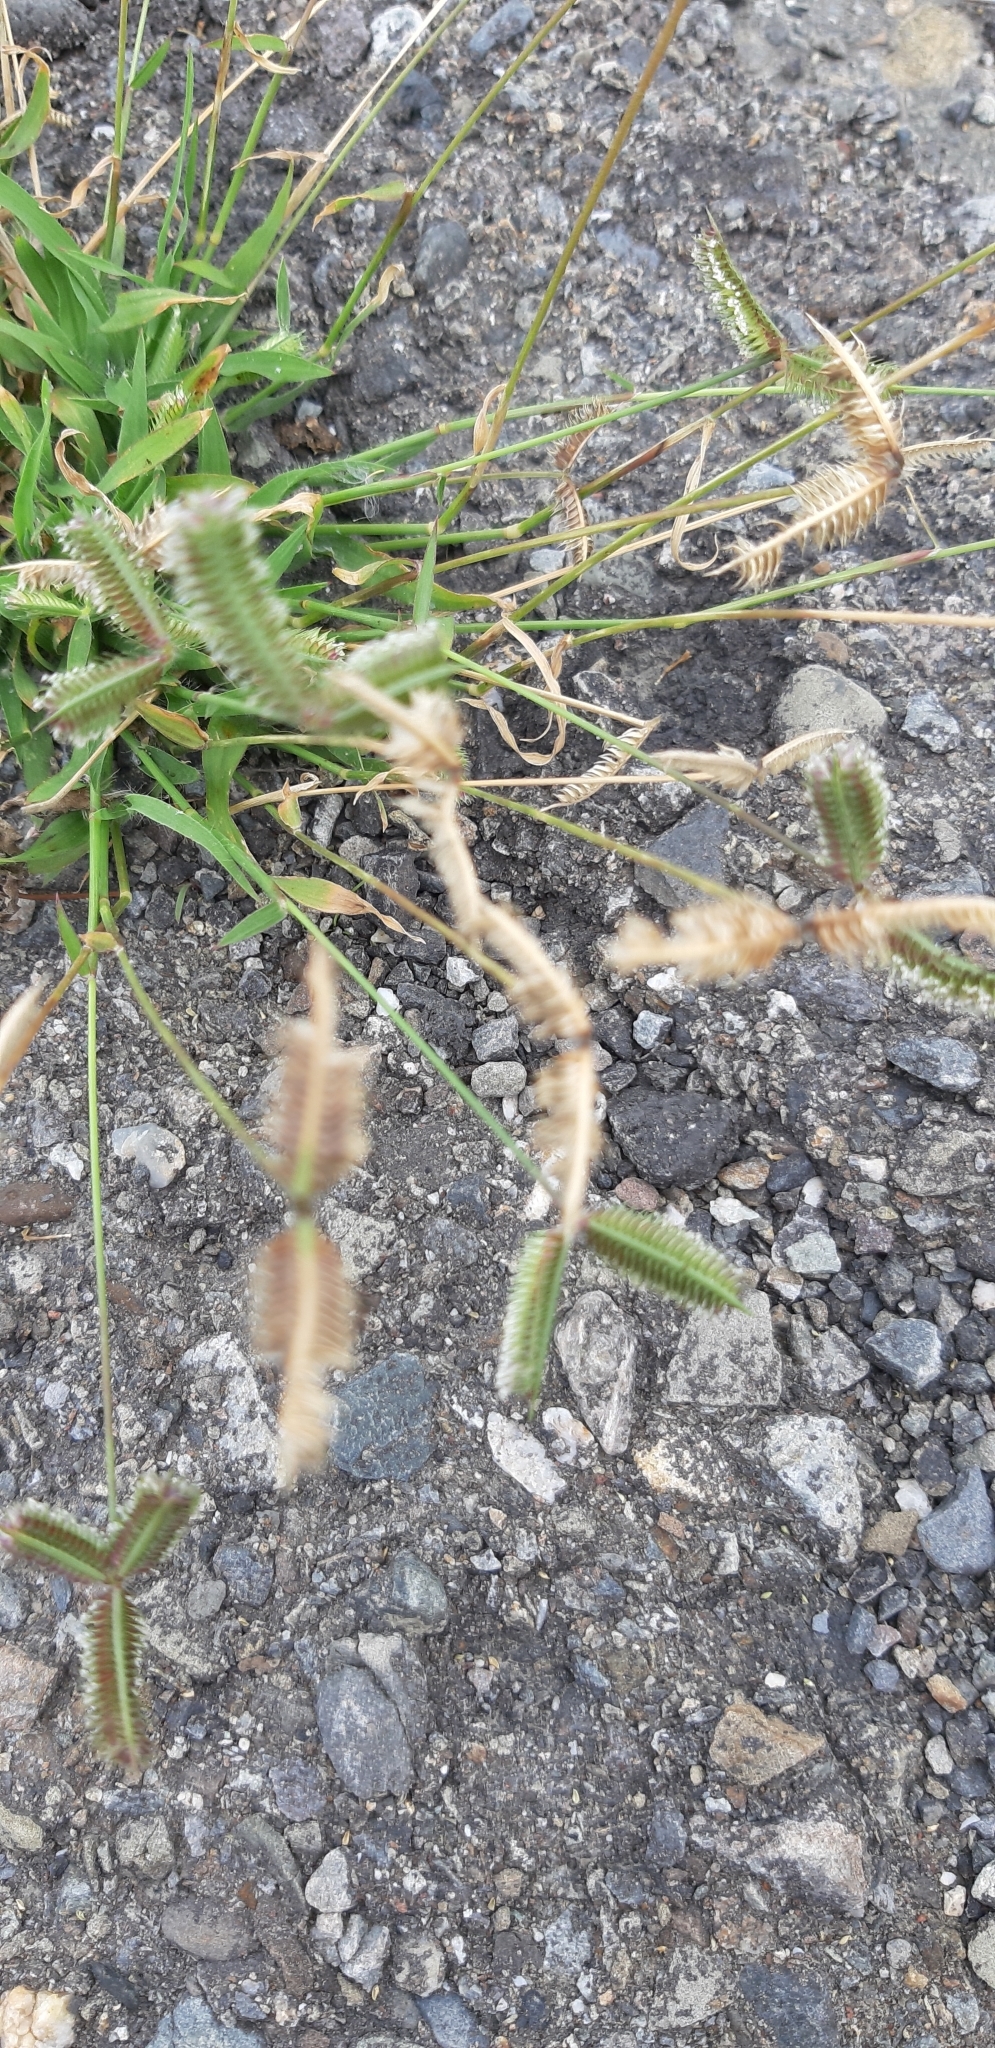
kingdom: Plantae
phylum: Tracheophyta
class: Liliopsida
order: Poales
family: Poaceae
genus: Dactyloctenium
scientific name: Dactyloctenium aegyptium
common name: Egyptian grass
